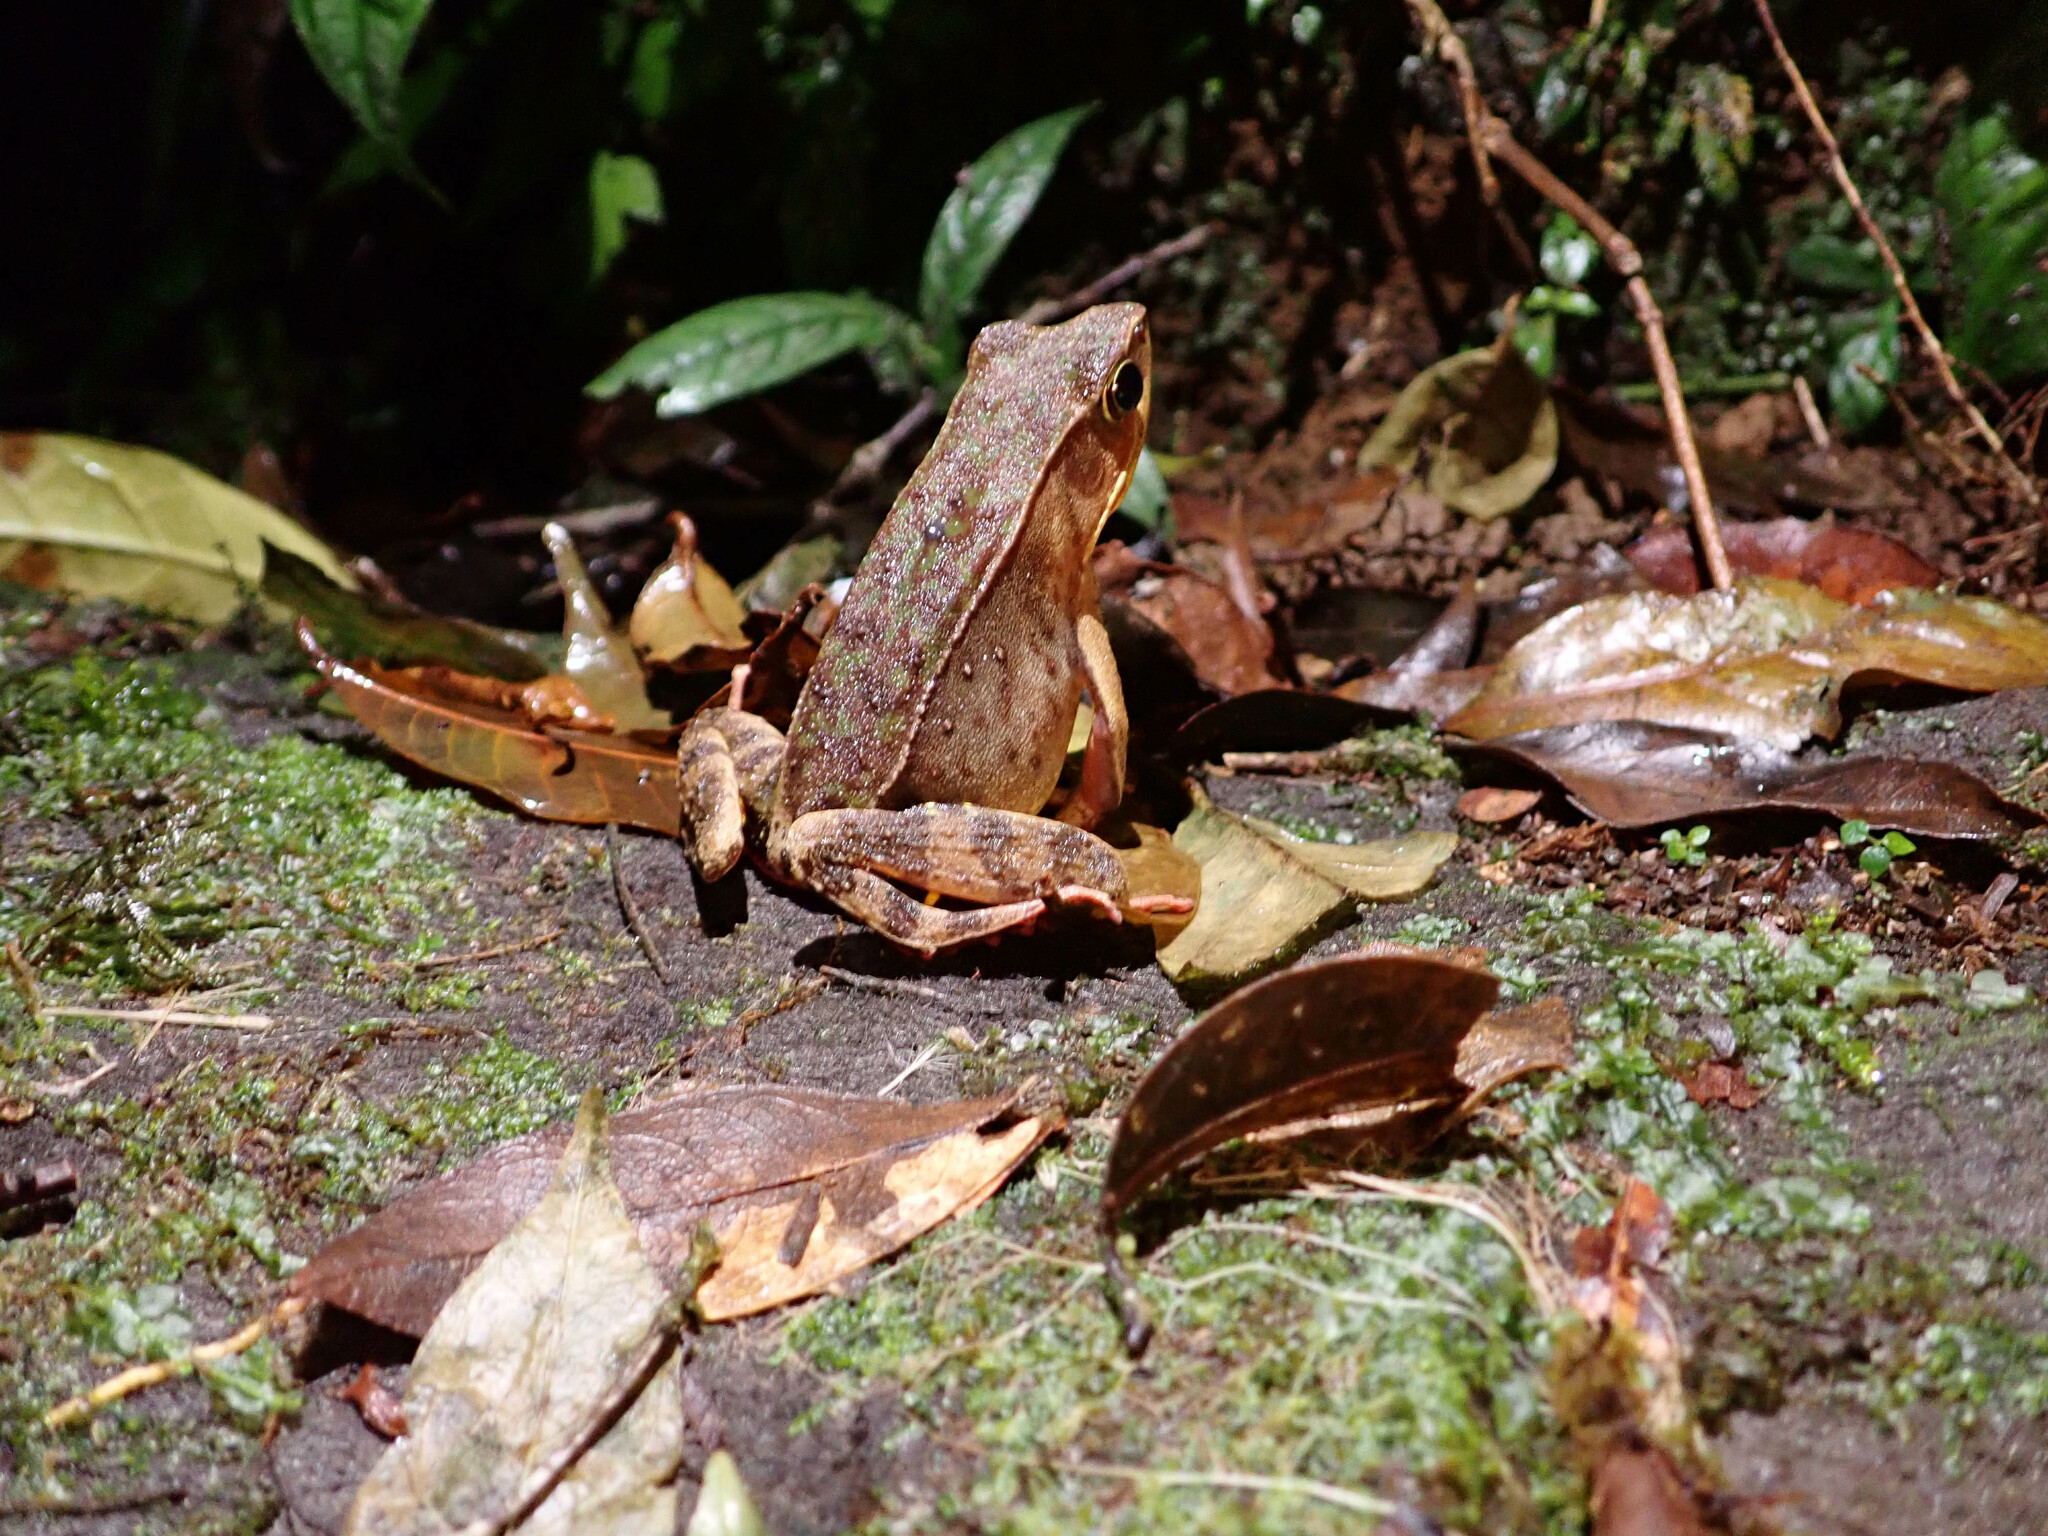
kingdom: Animalia
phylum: Chordata
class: Amphibia
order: Anura
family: Ranidae
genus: Lithobates
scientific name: Lithobates warszewitschii
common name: Warszewitsch's frog
